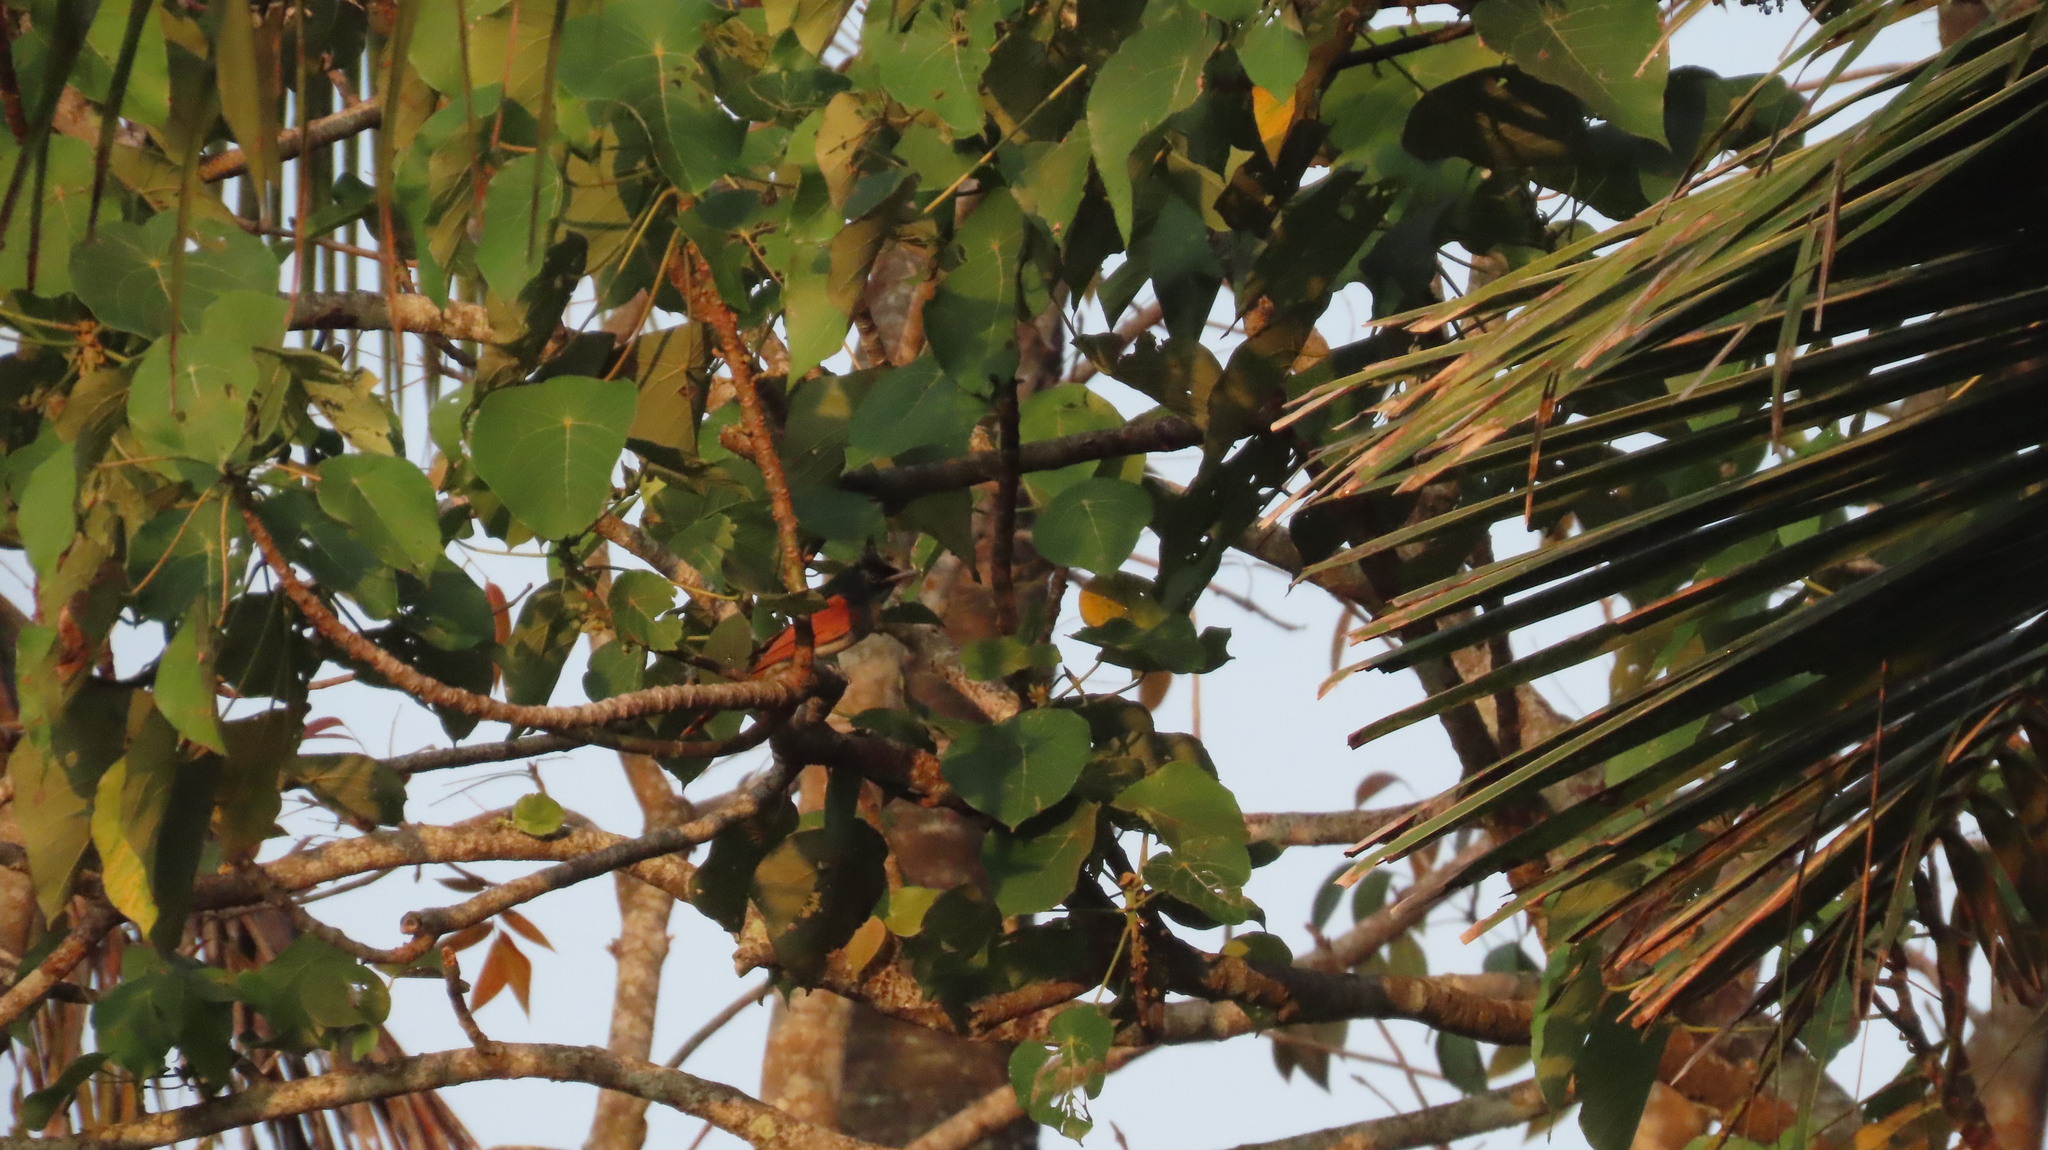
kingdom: Animalia
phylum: Chordata
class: Aves
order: Passeriformes
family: Monarchidae
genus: Terpsiphone
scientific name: Terpsiphone paradisi
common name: Indian paradise flycatcher
